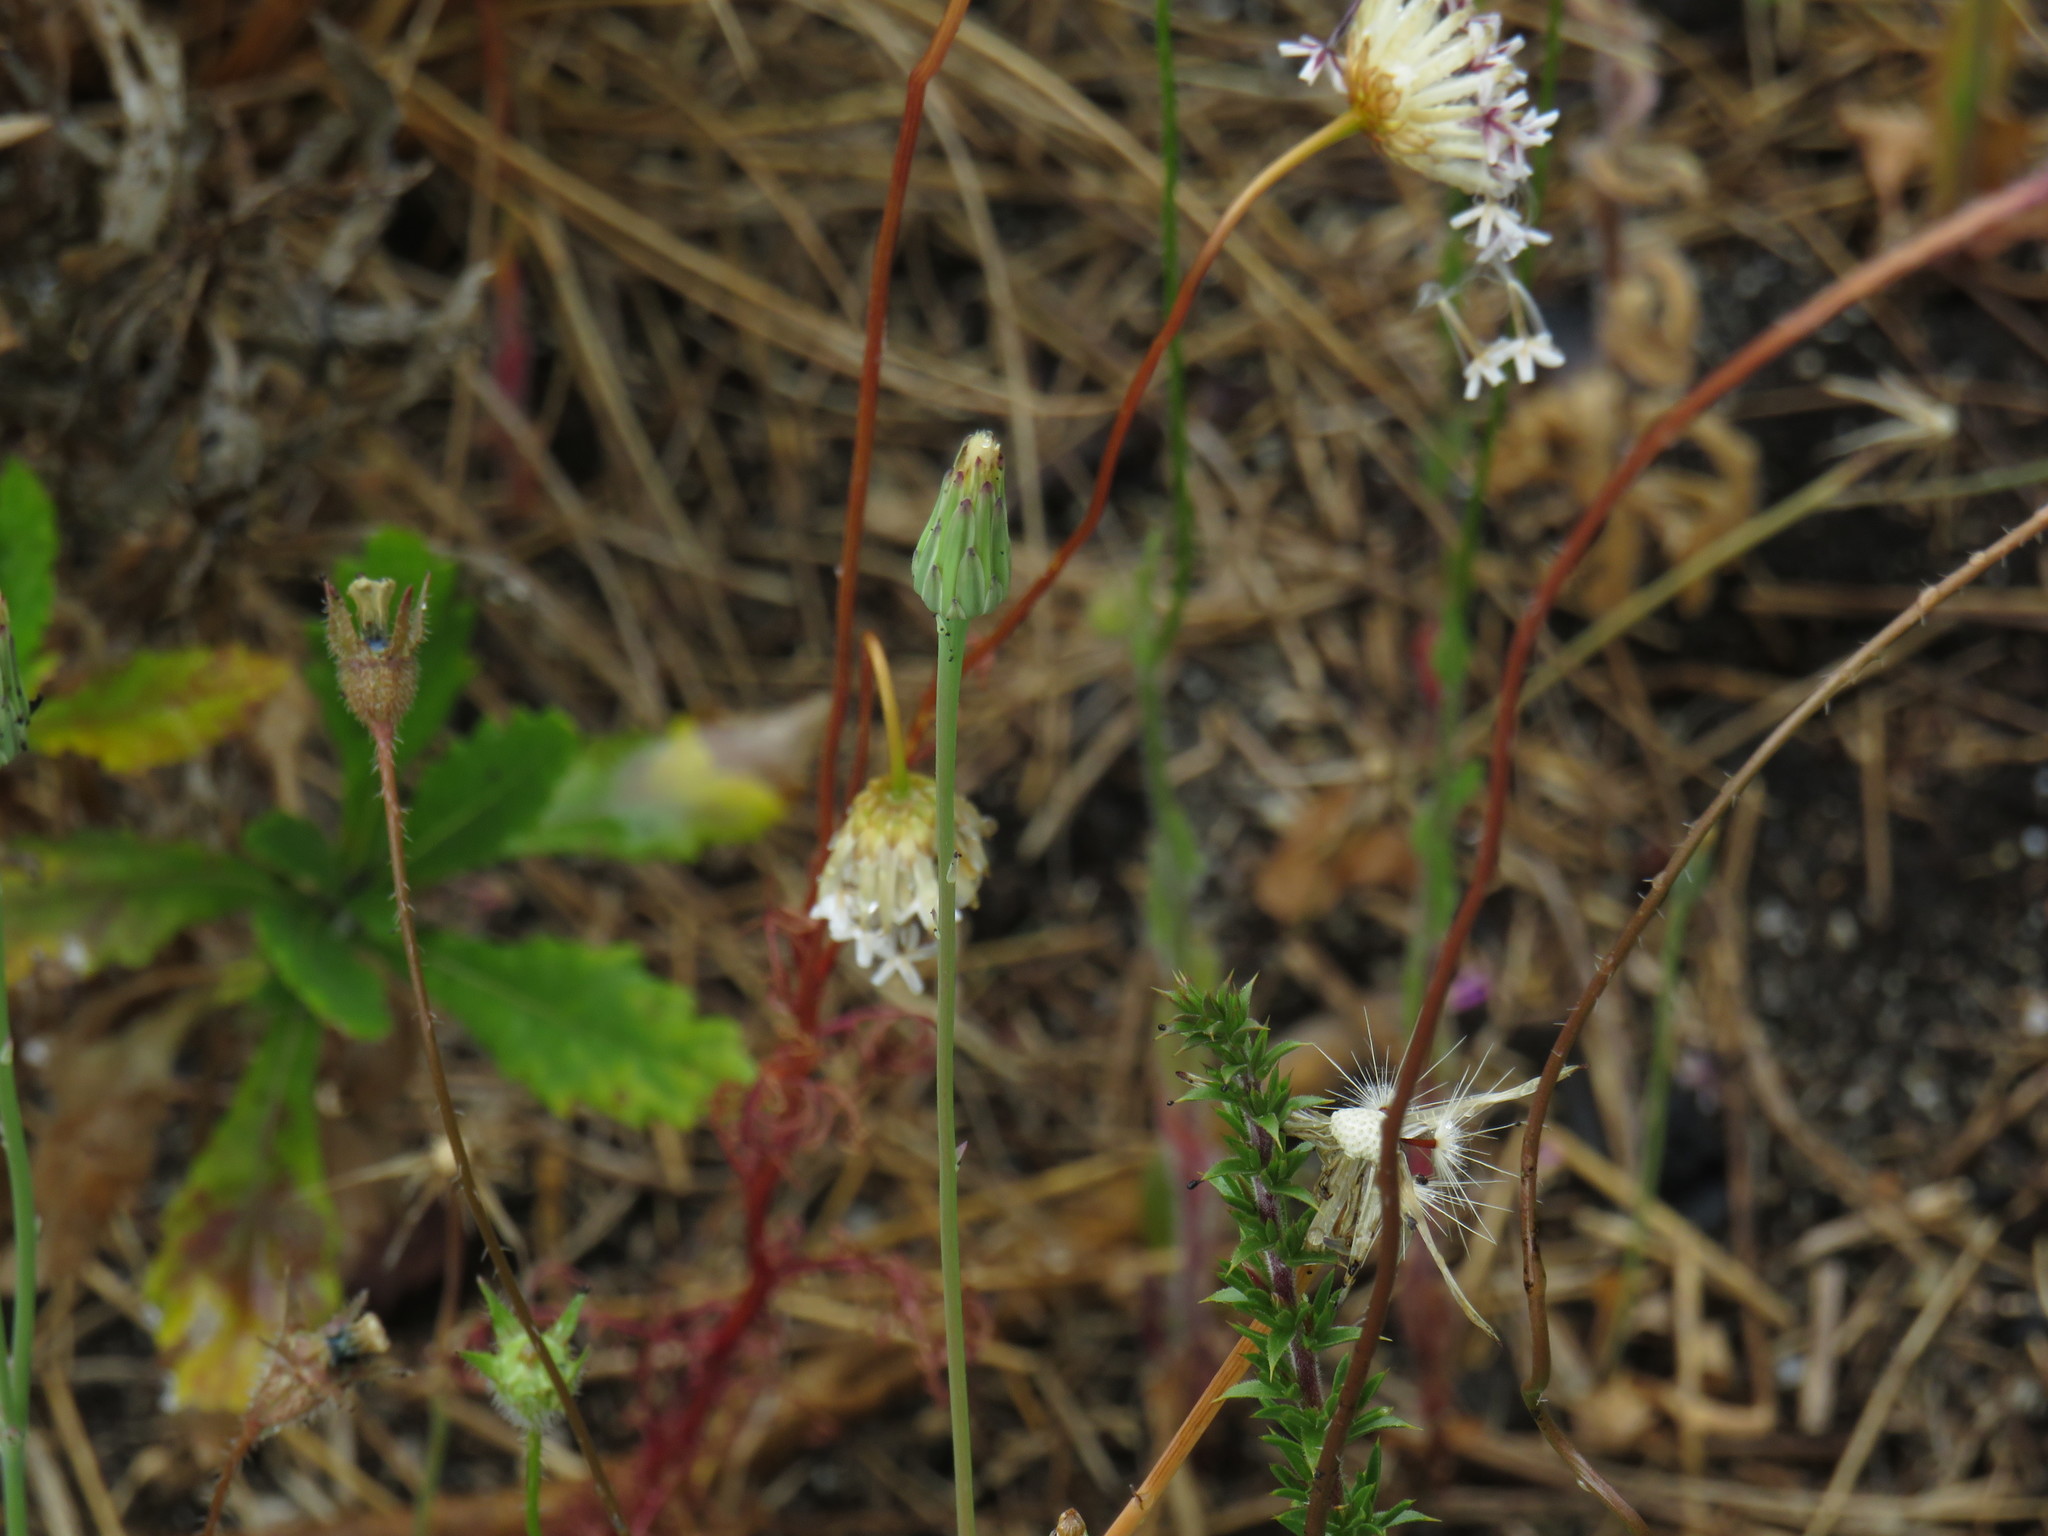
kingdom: Plantae
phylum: Tracheophyta
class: Magnoliopsida
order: Asterales
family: Asteraceae
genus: Hypochaeris
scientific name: Hypochaeris glabra
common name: Smooth catsear
